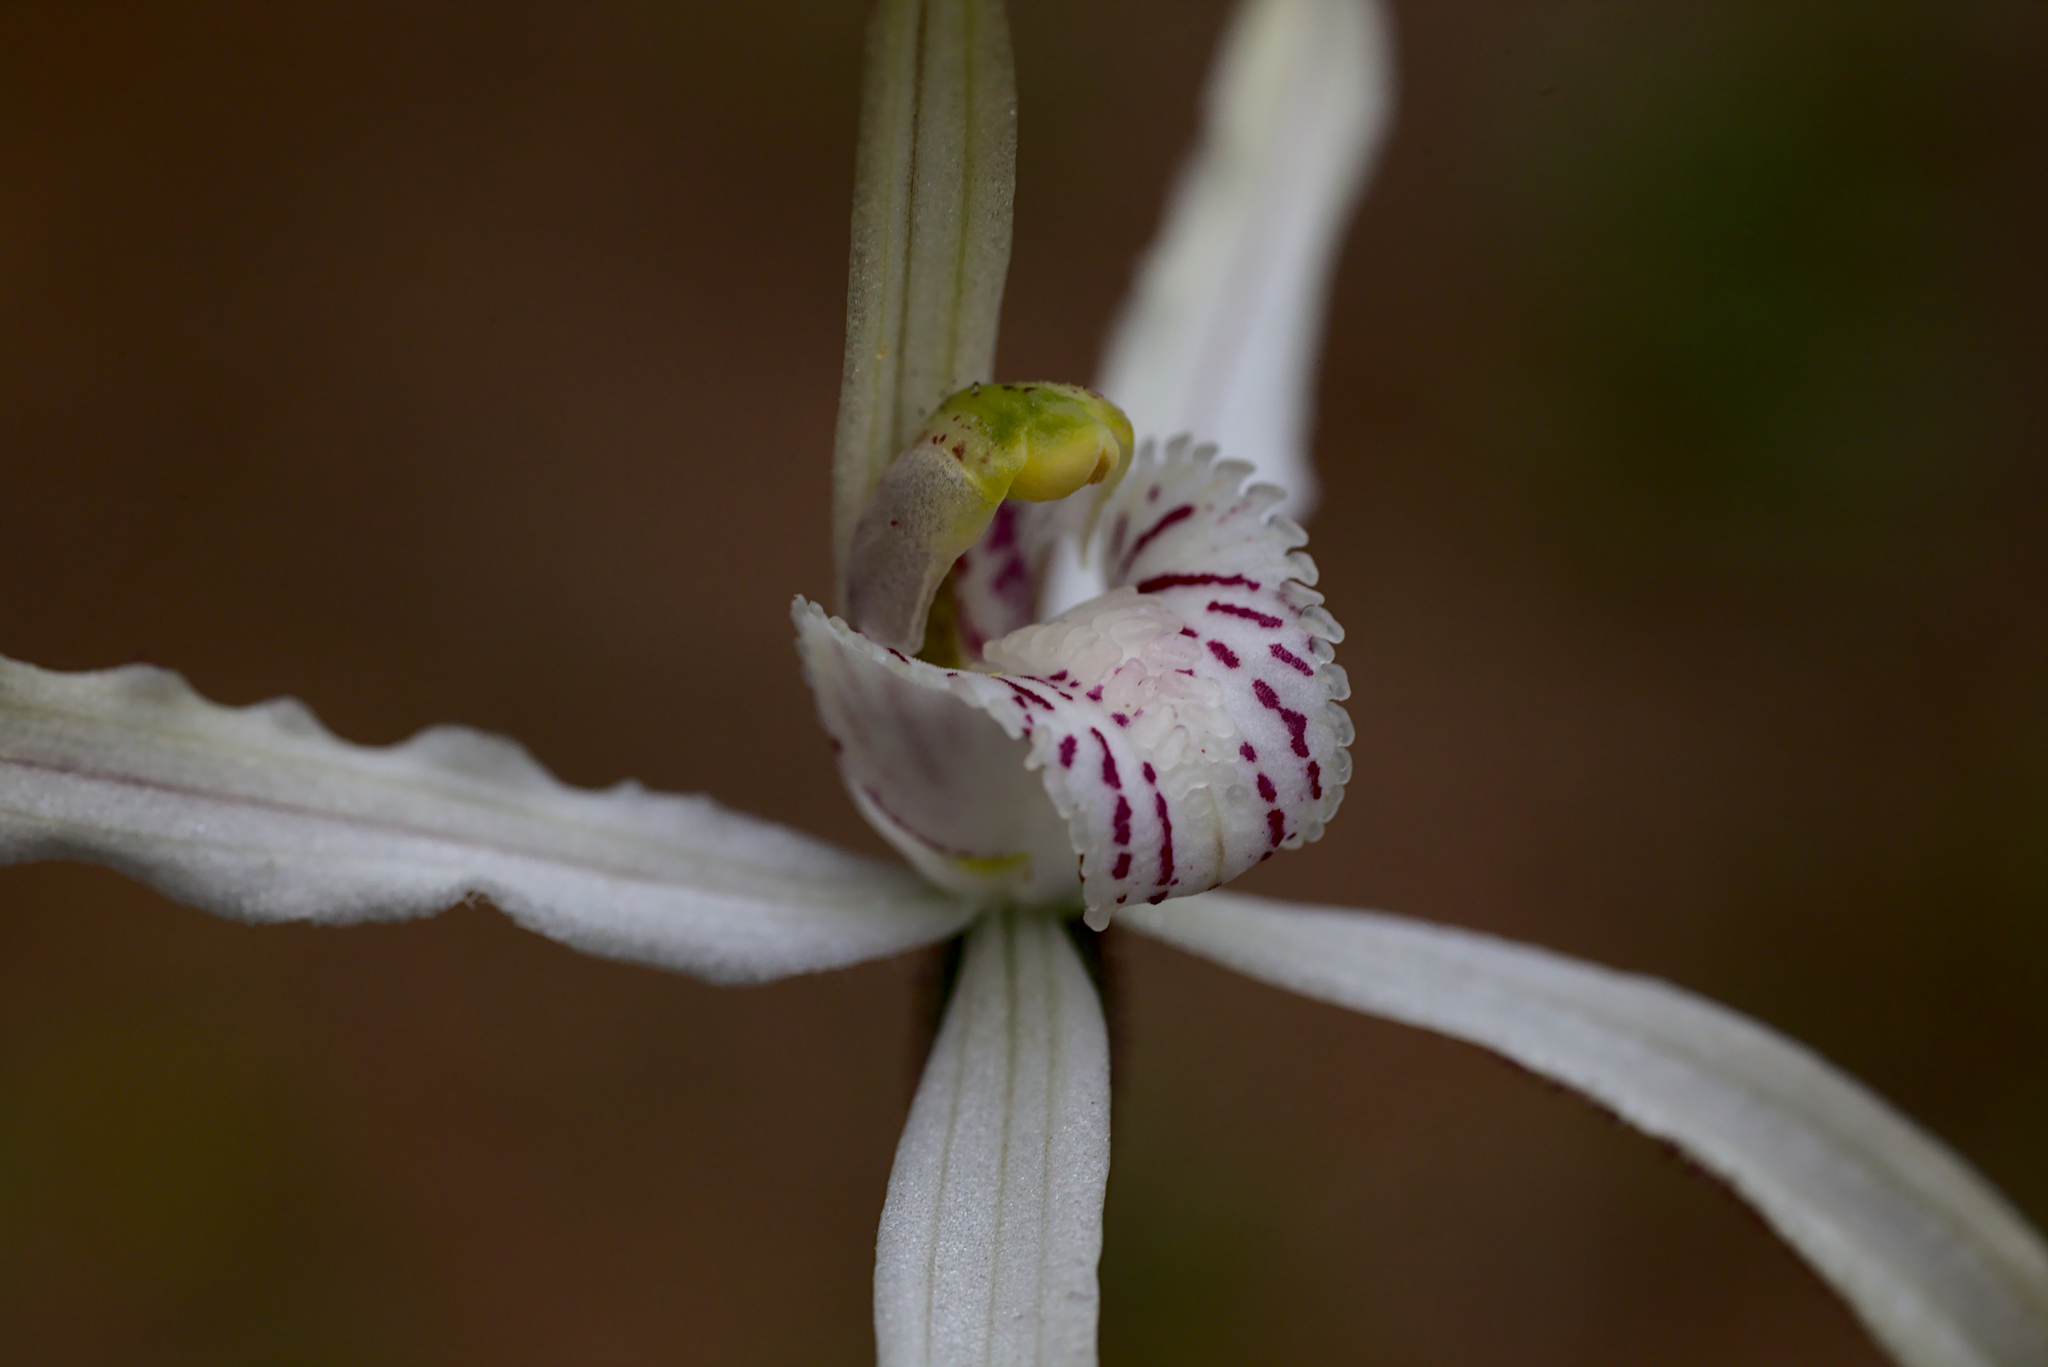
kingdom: Plantae
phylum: Tracheophyta
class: Liliopsida
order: Asparagales
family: Orchidaceae
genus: Caladenia
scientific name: Caladenia incensum
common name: Glistening spider orchid
